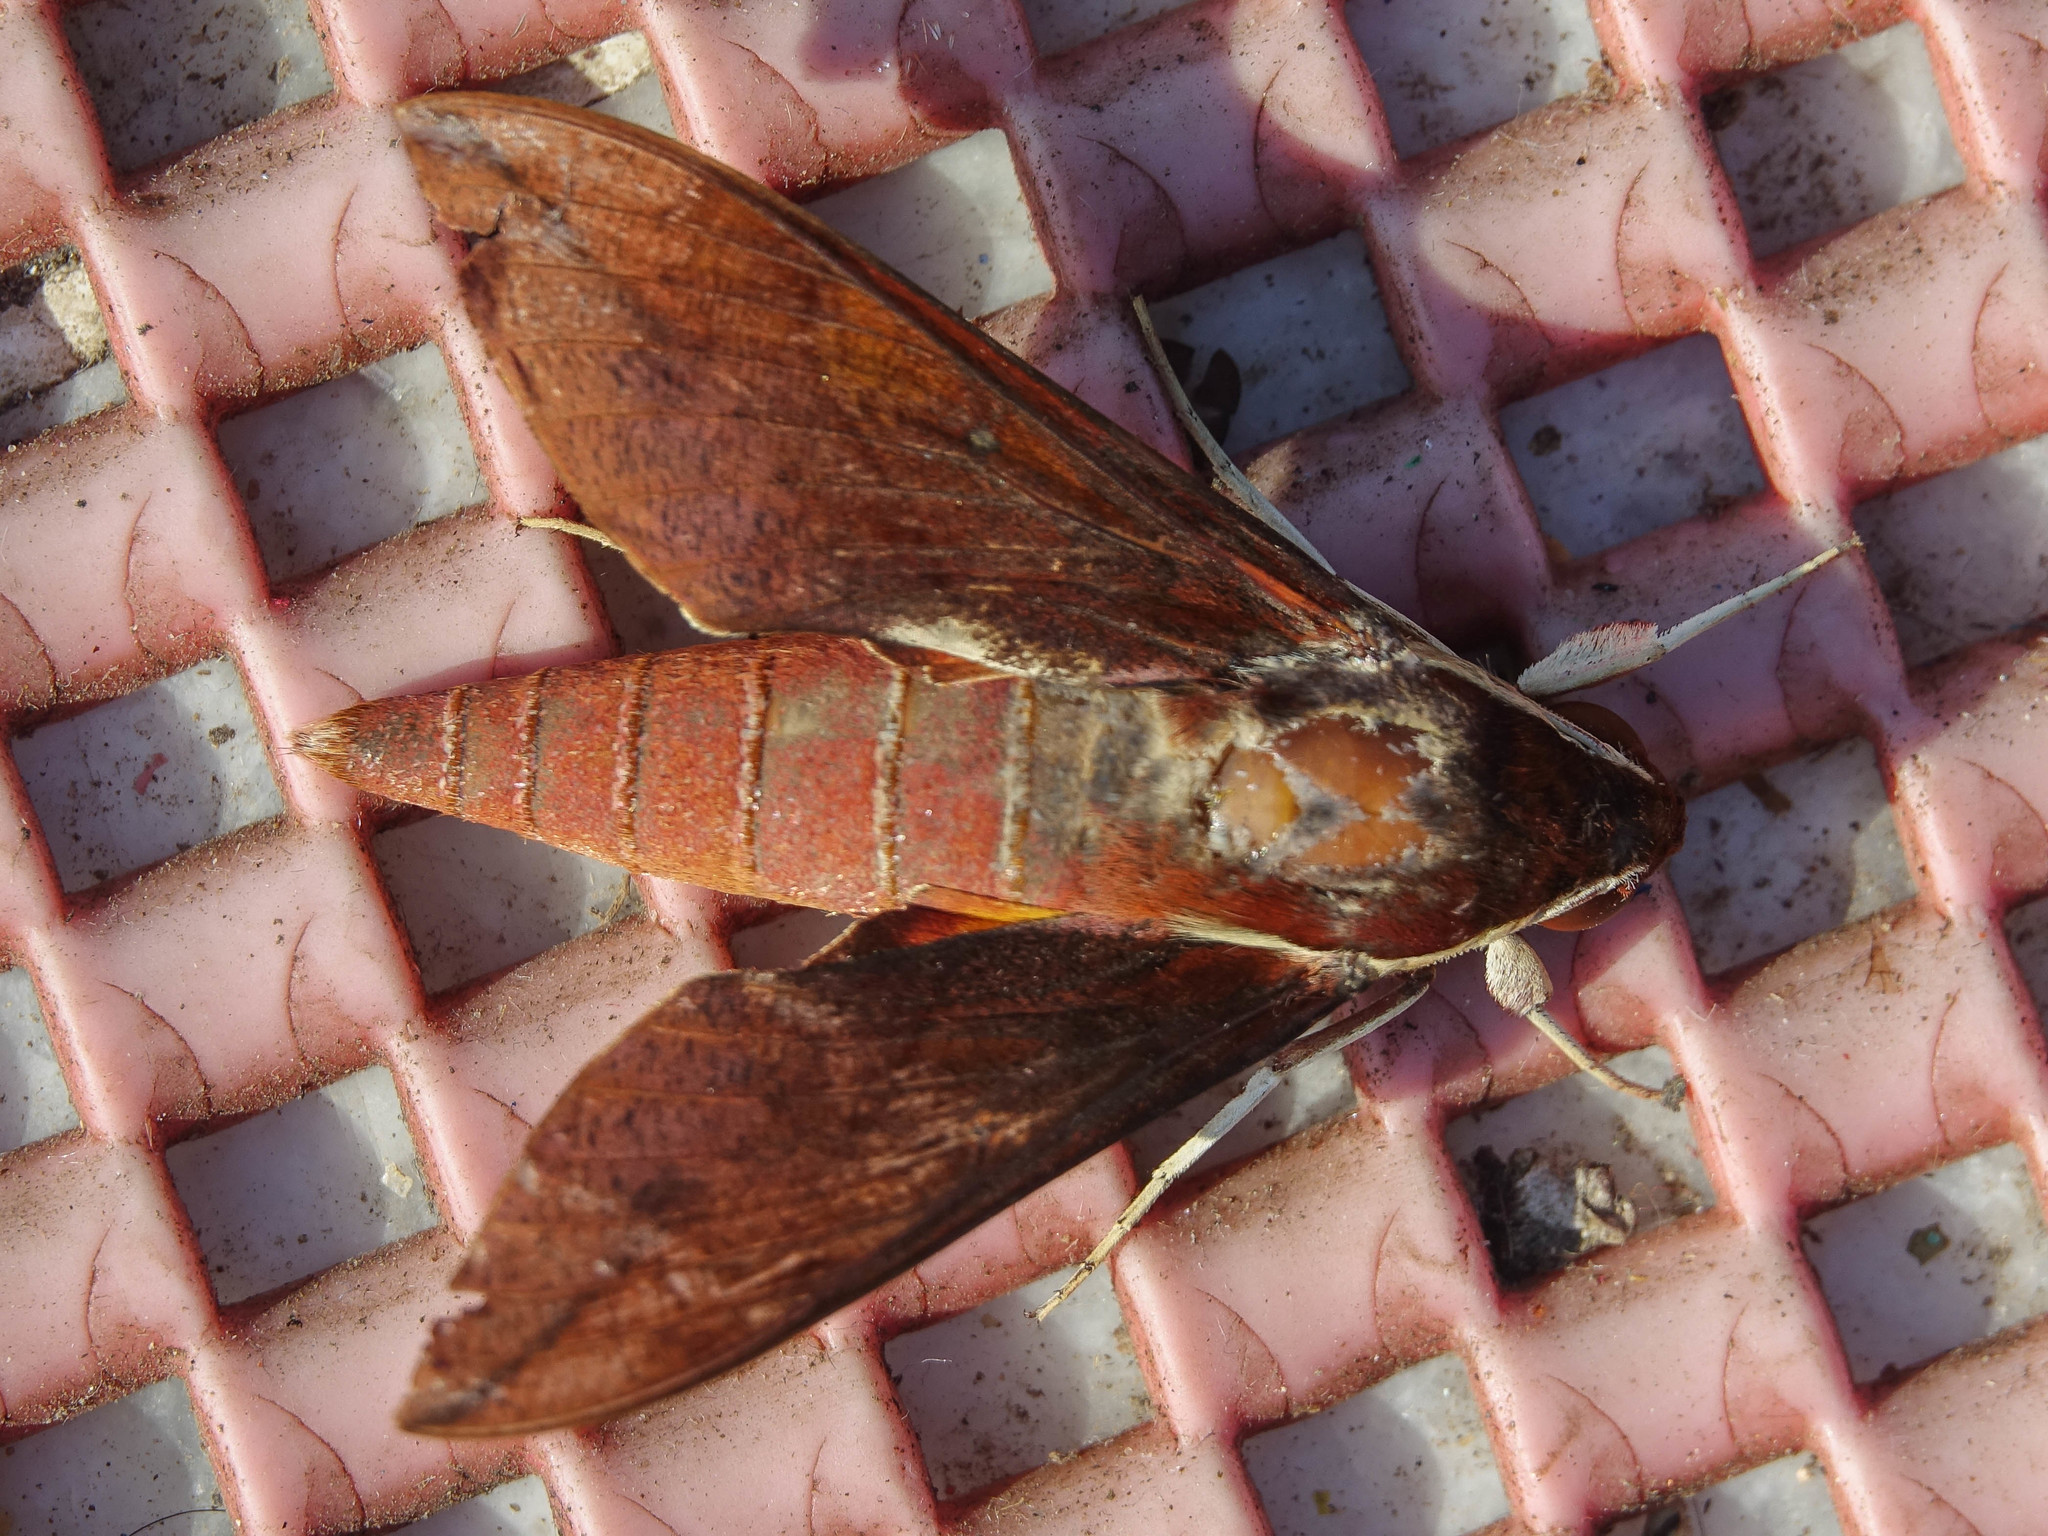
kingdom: Animalia
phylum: Arthropoda
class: Insecta
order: Lepidoptera
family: Sphingidae
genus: Theretra
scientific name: Theretra pallicosta
